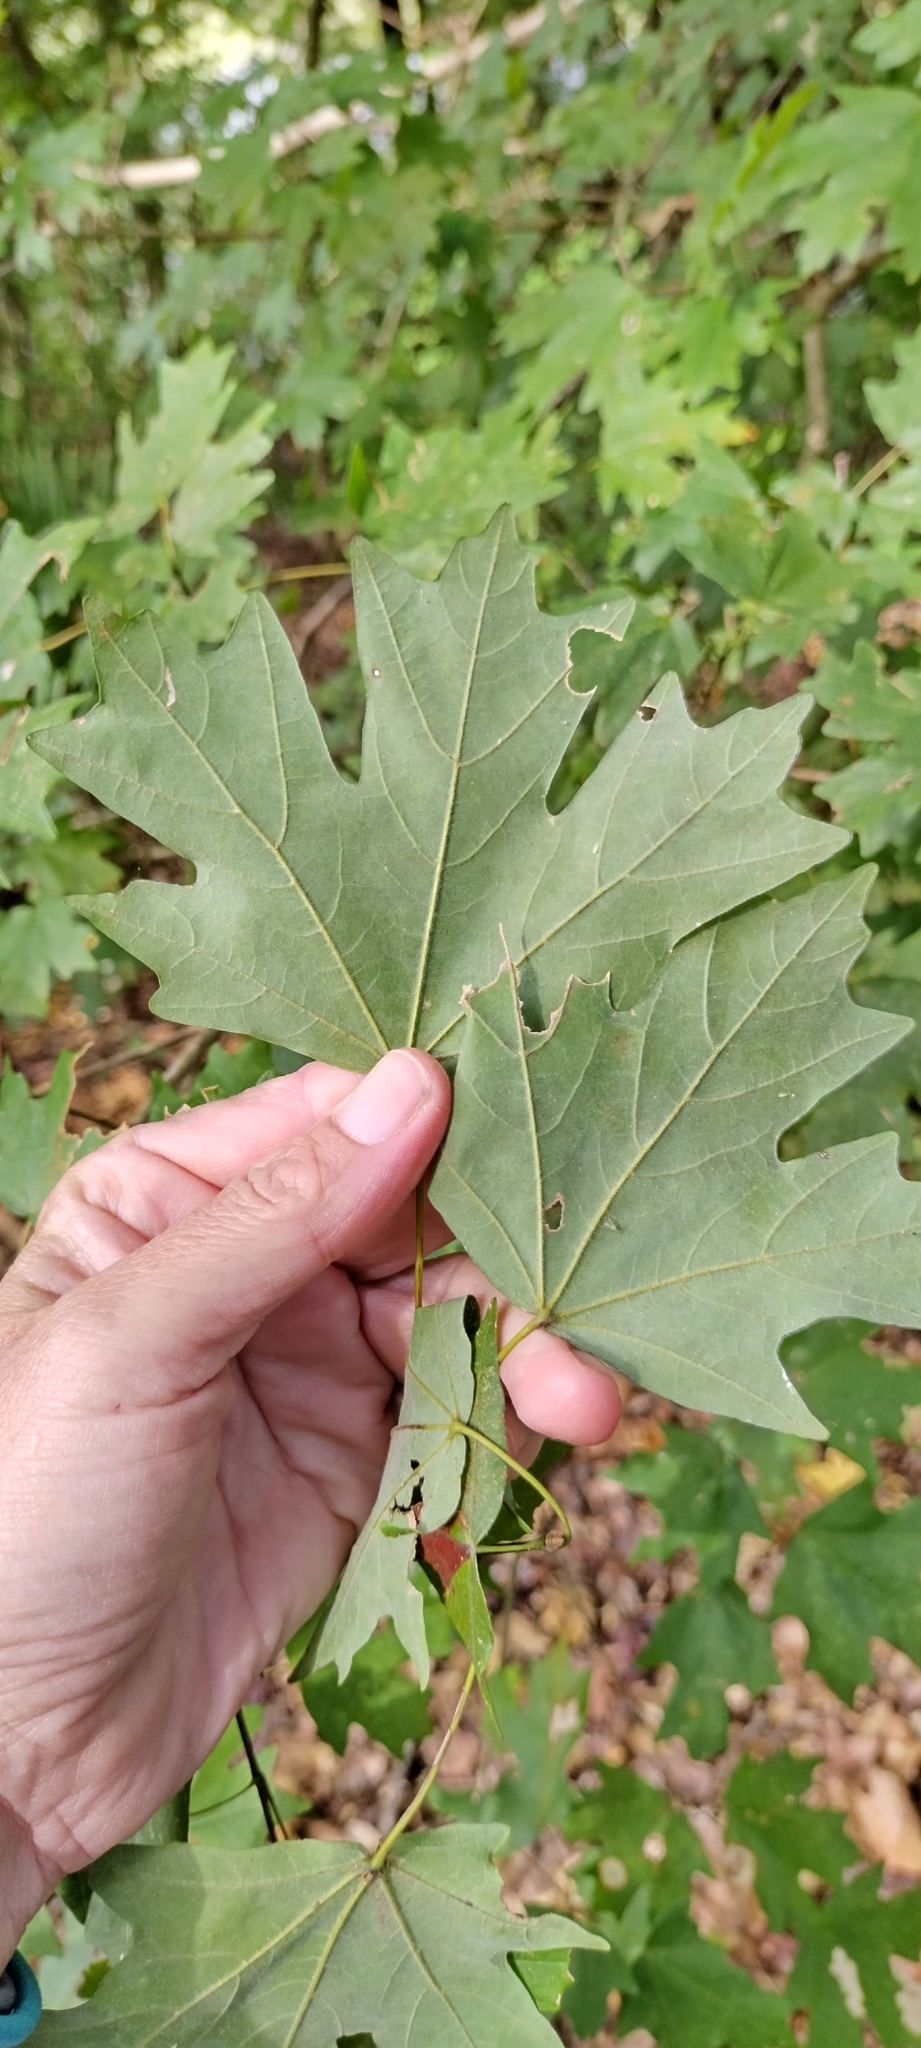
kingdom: Plantae
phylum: Tracheophyta
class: Magnoliopsida
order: Sapindales
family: Sapindaceae
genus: Acer
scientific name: Acer floridanum
